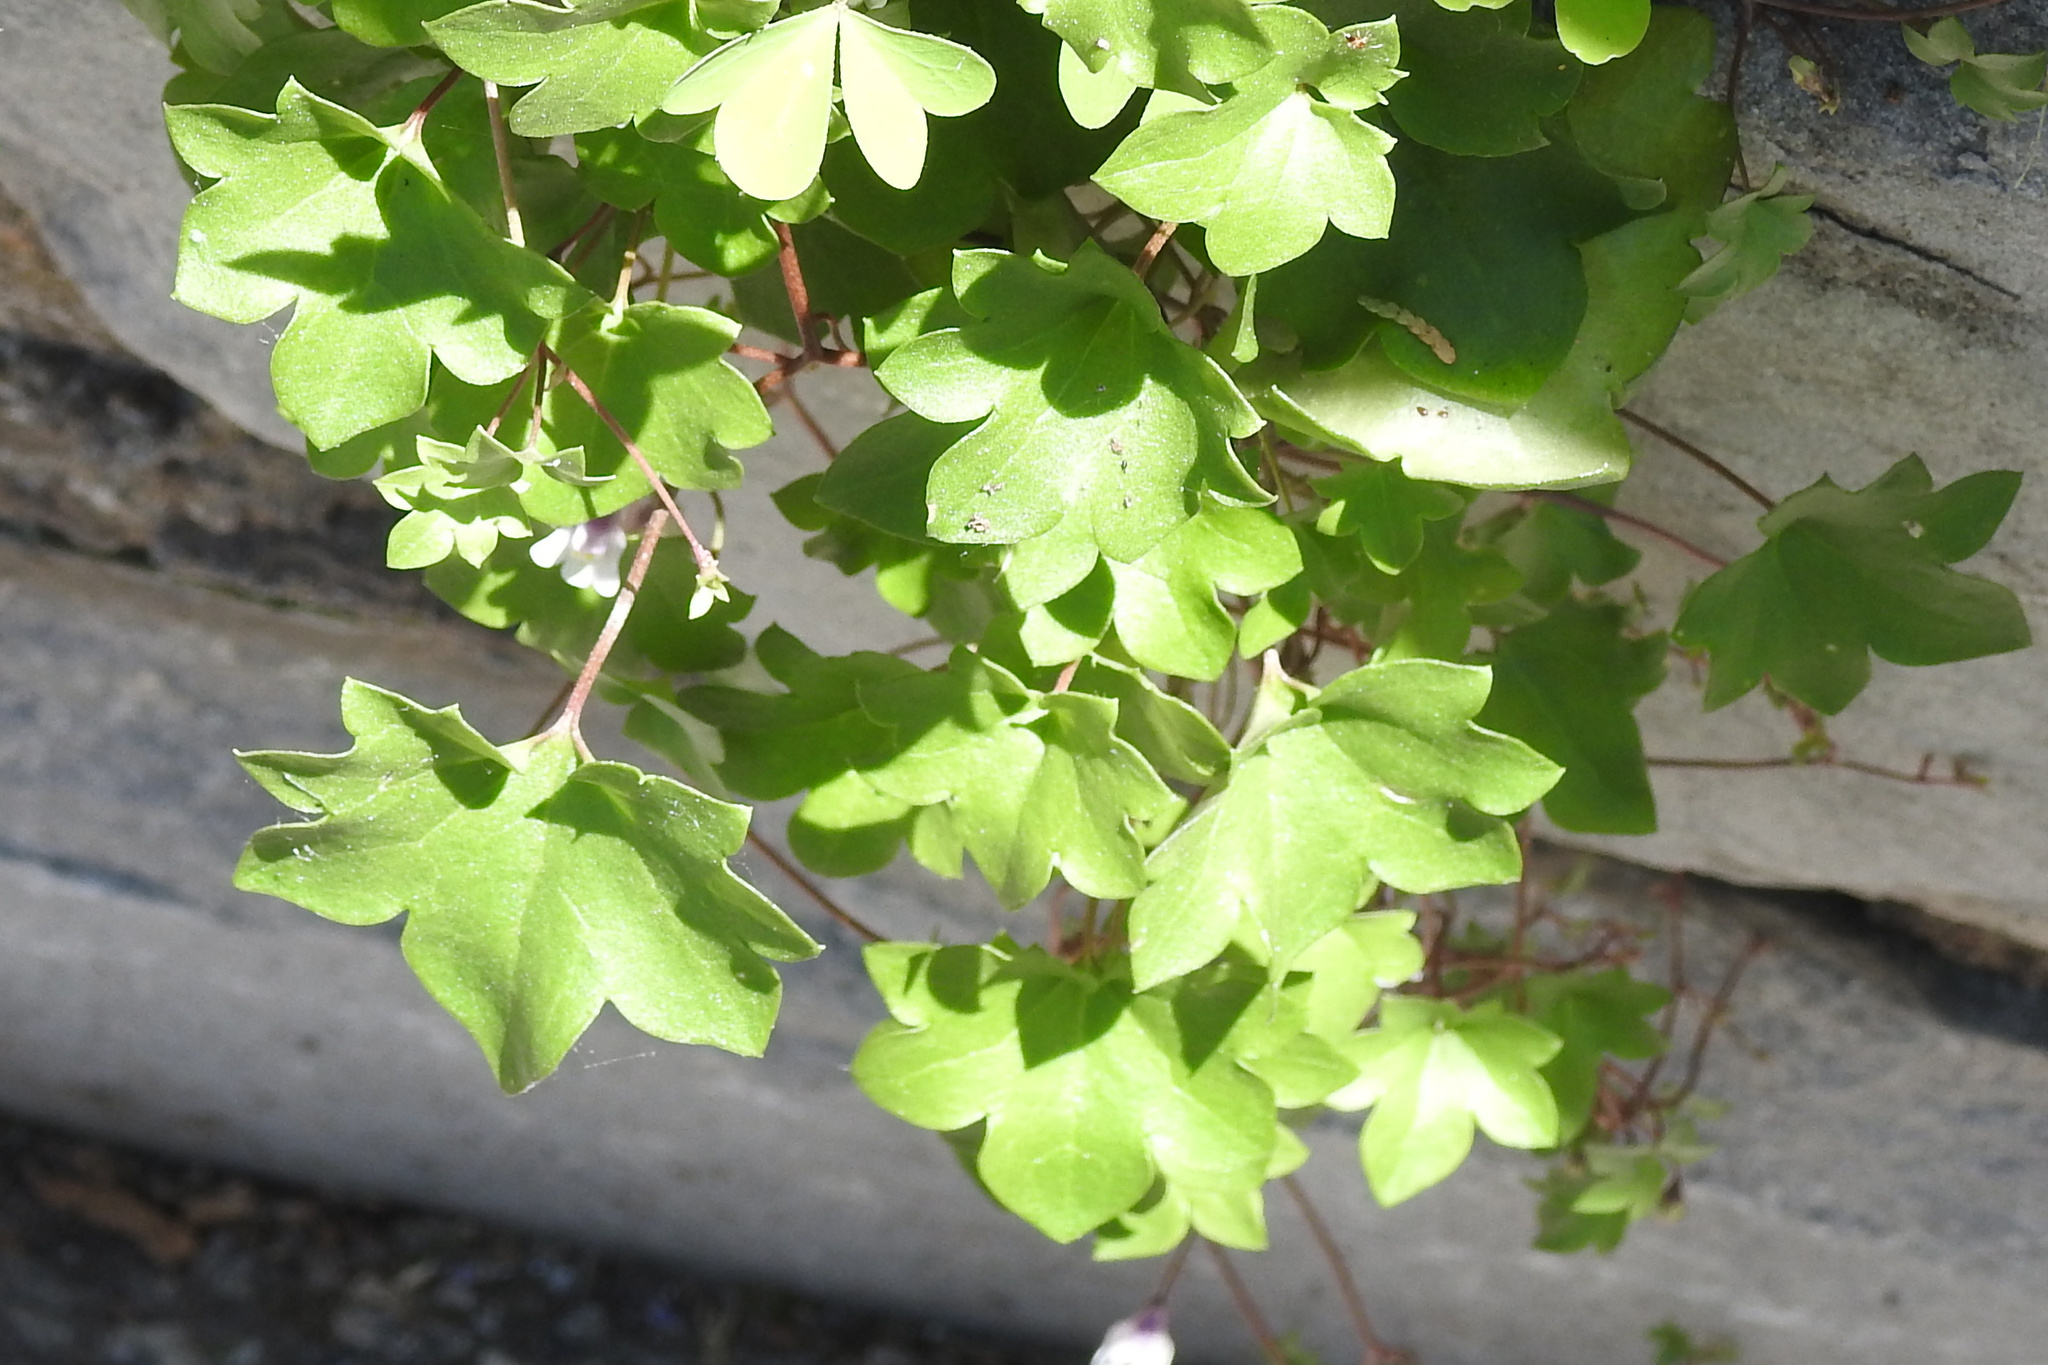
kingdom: Plantae
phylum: Tracheophyta
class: Magnoliopsida
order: Lamiales
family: Plantaginaceae
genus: Cymbalaria
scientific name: Cymbalaria muralis
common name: Ivy-leaved toadflax
